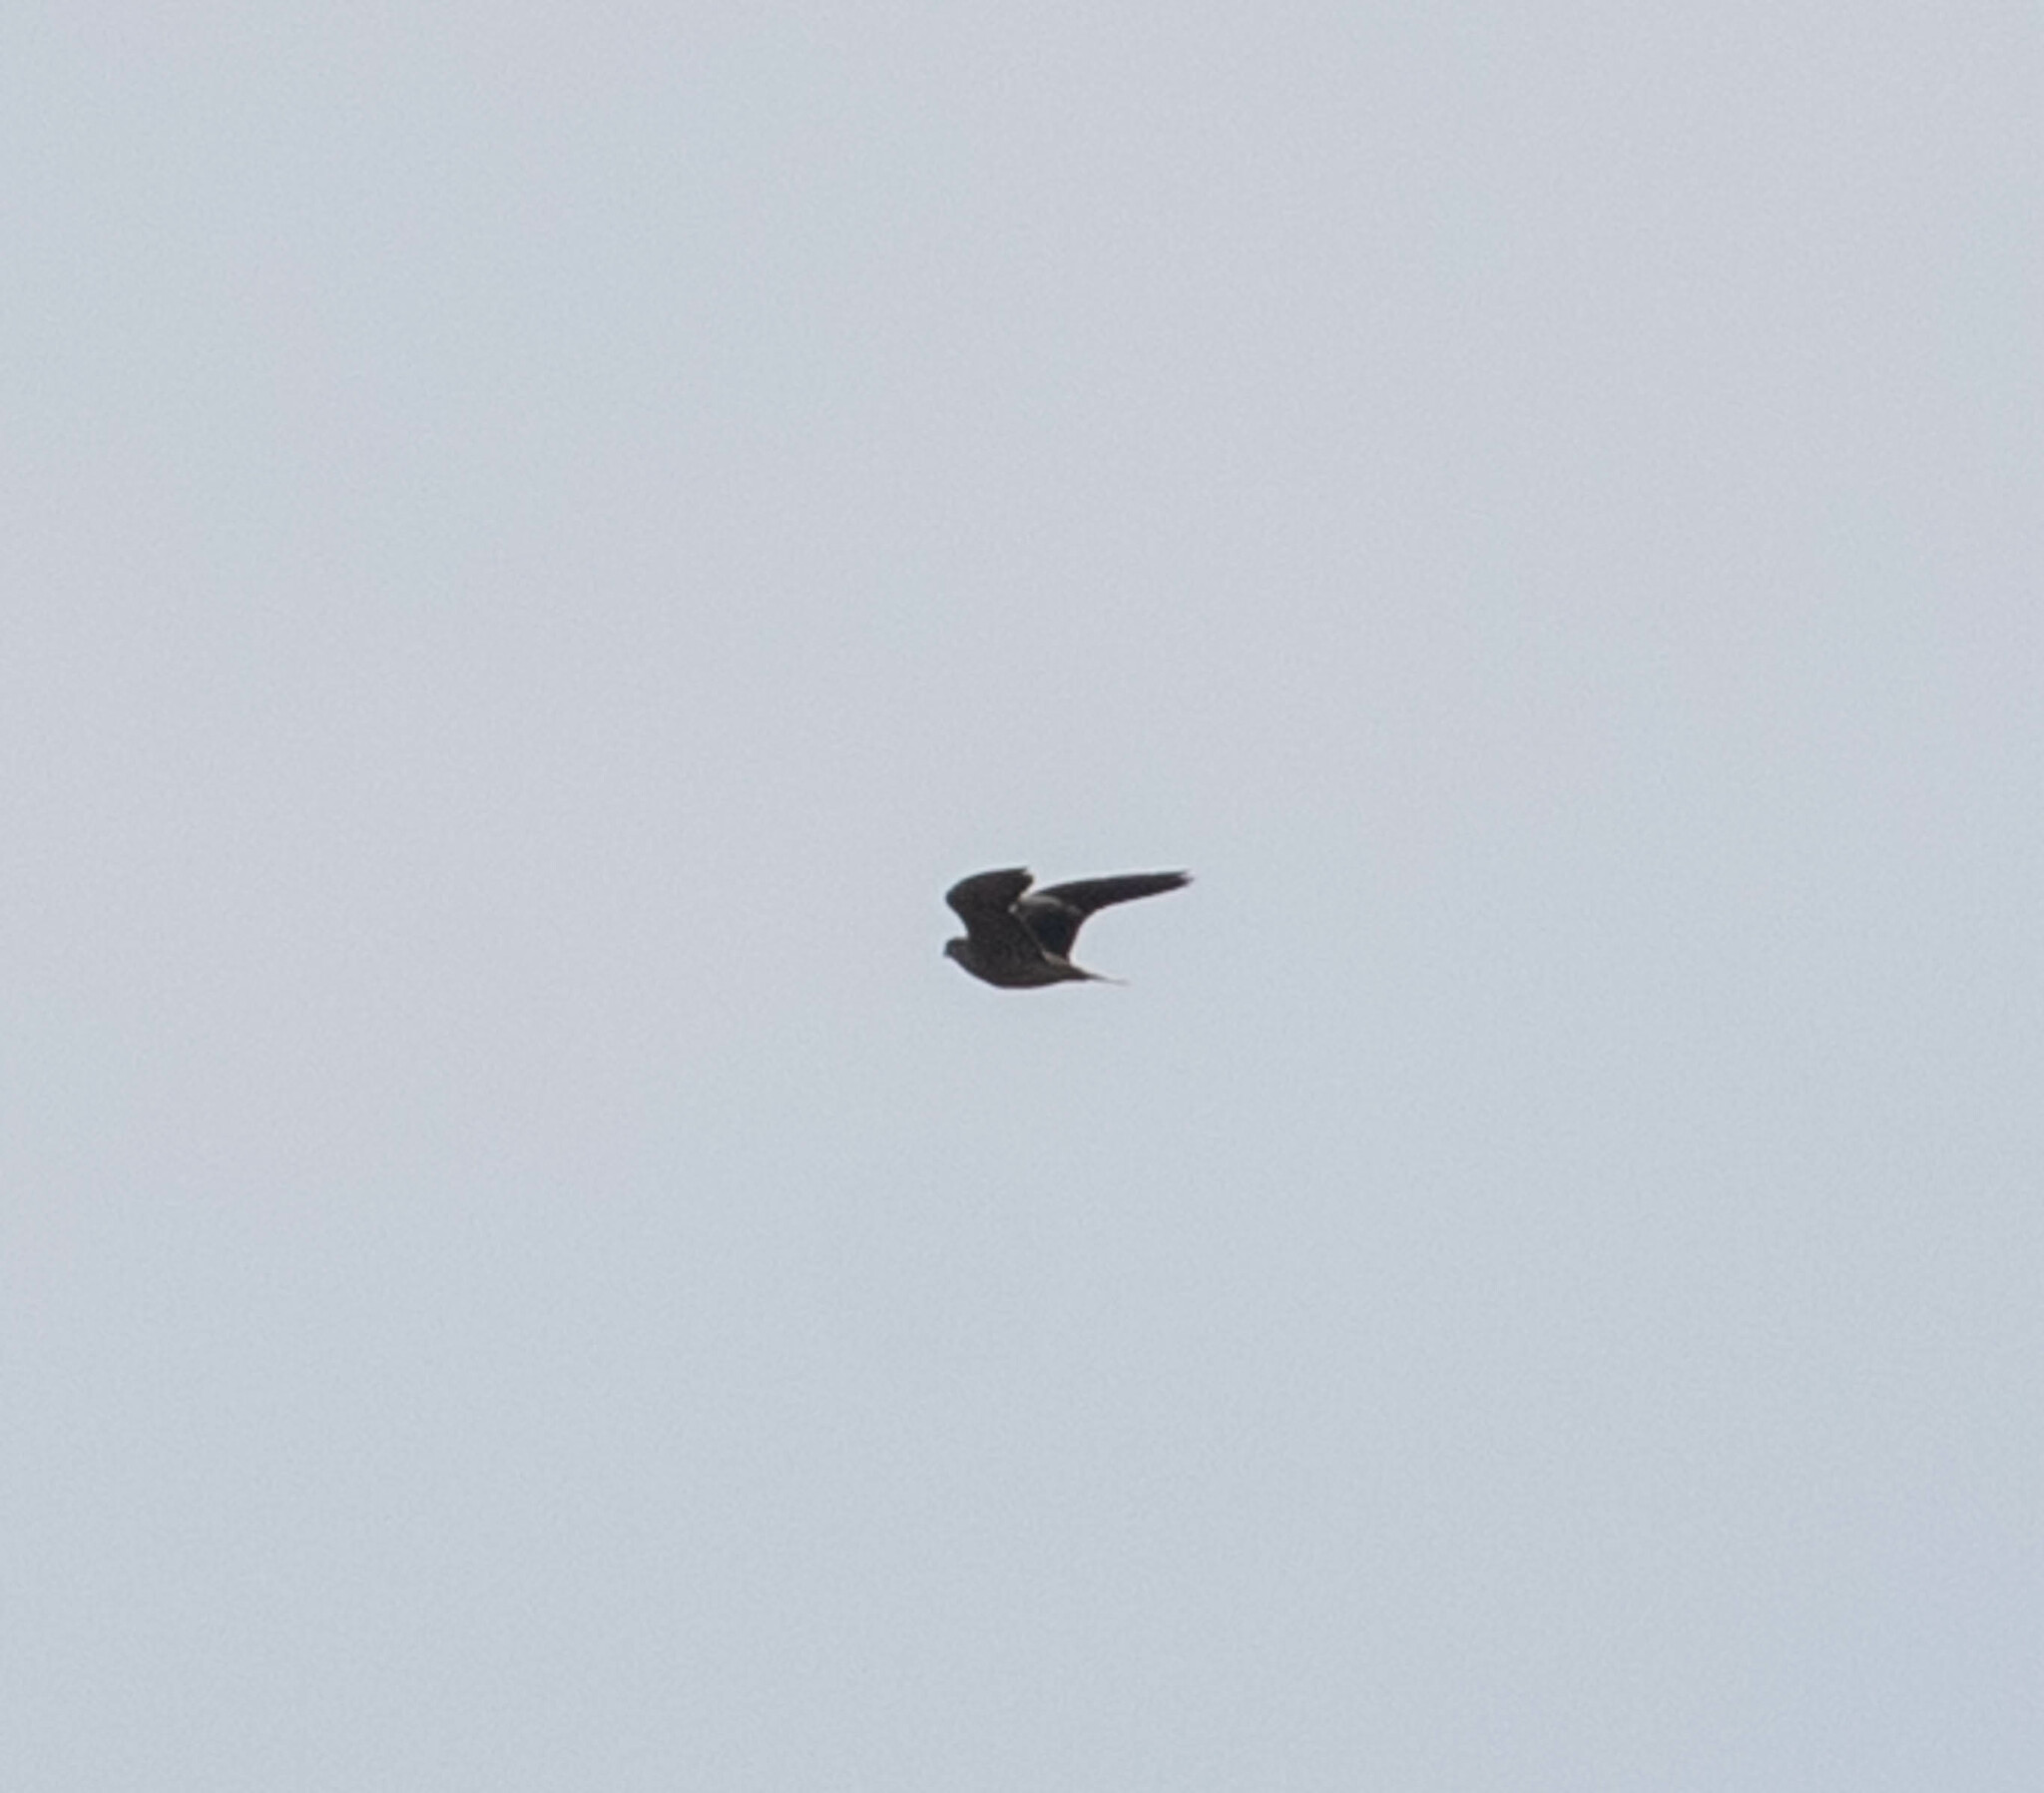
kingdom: Animalia
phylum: Chordata
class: Aves
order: Falconiformes
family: Falconidae
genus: Falco
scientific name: Falco peregrinus
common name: Peregrine falcon
